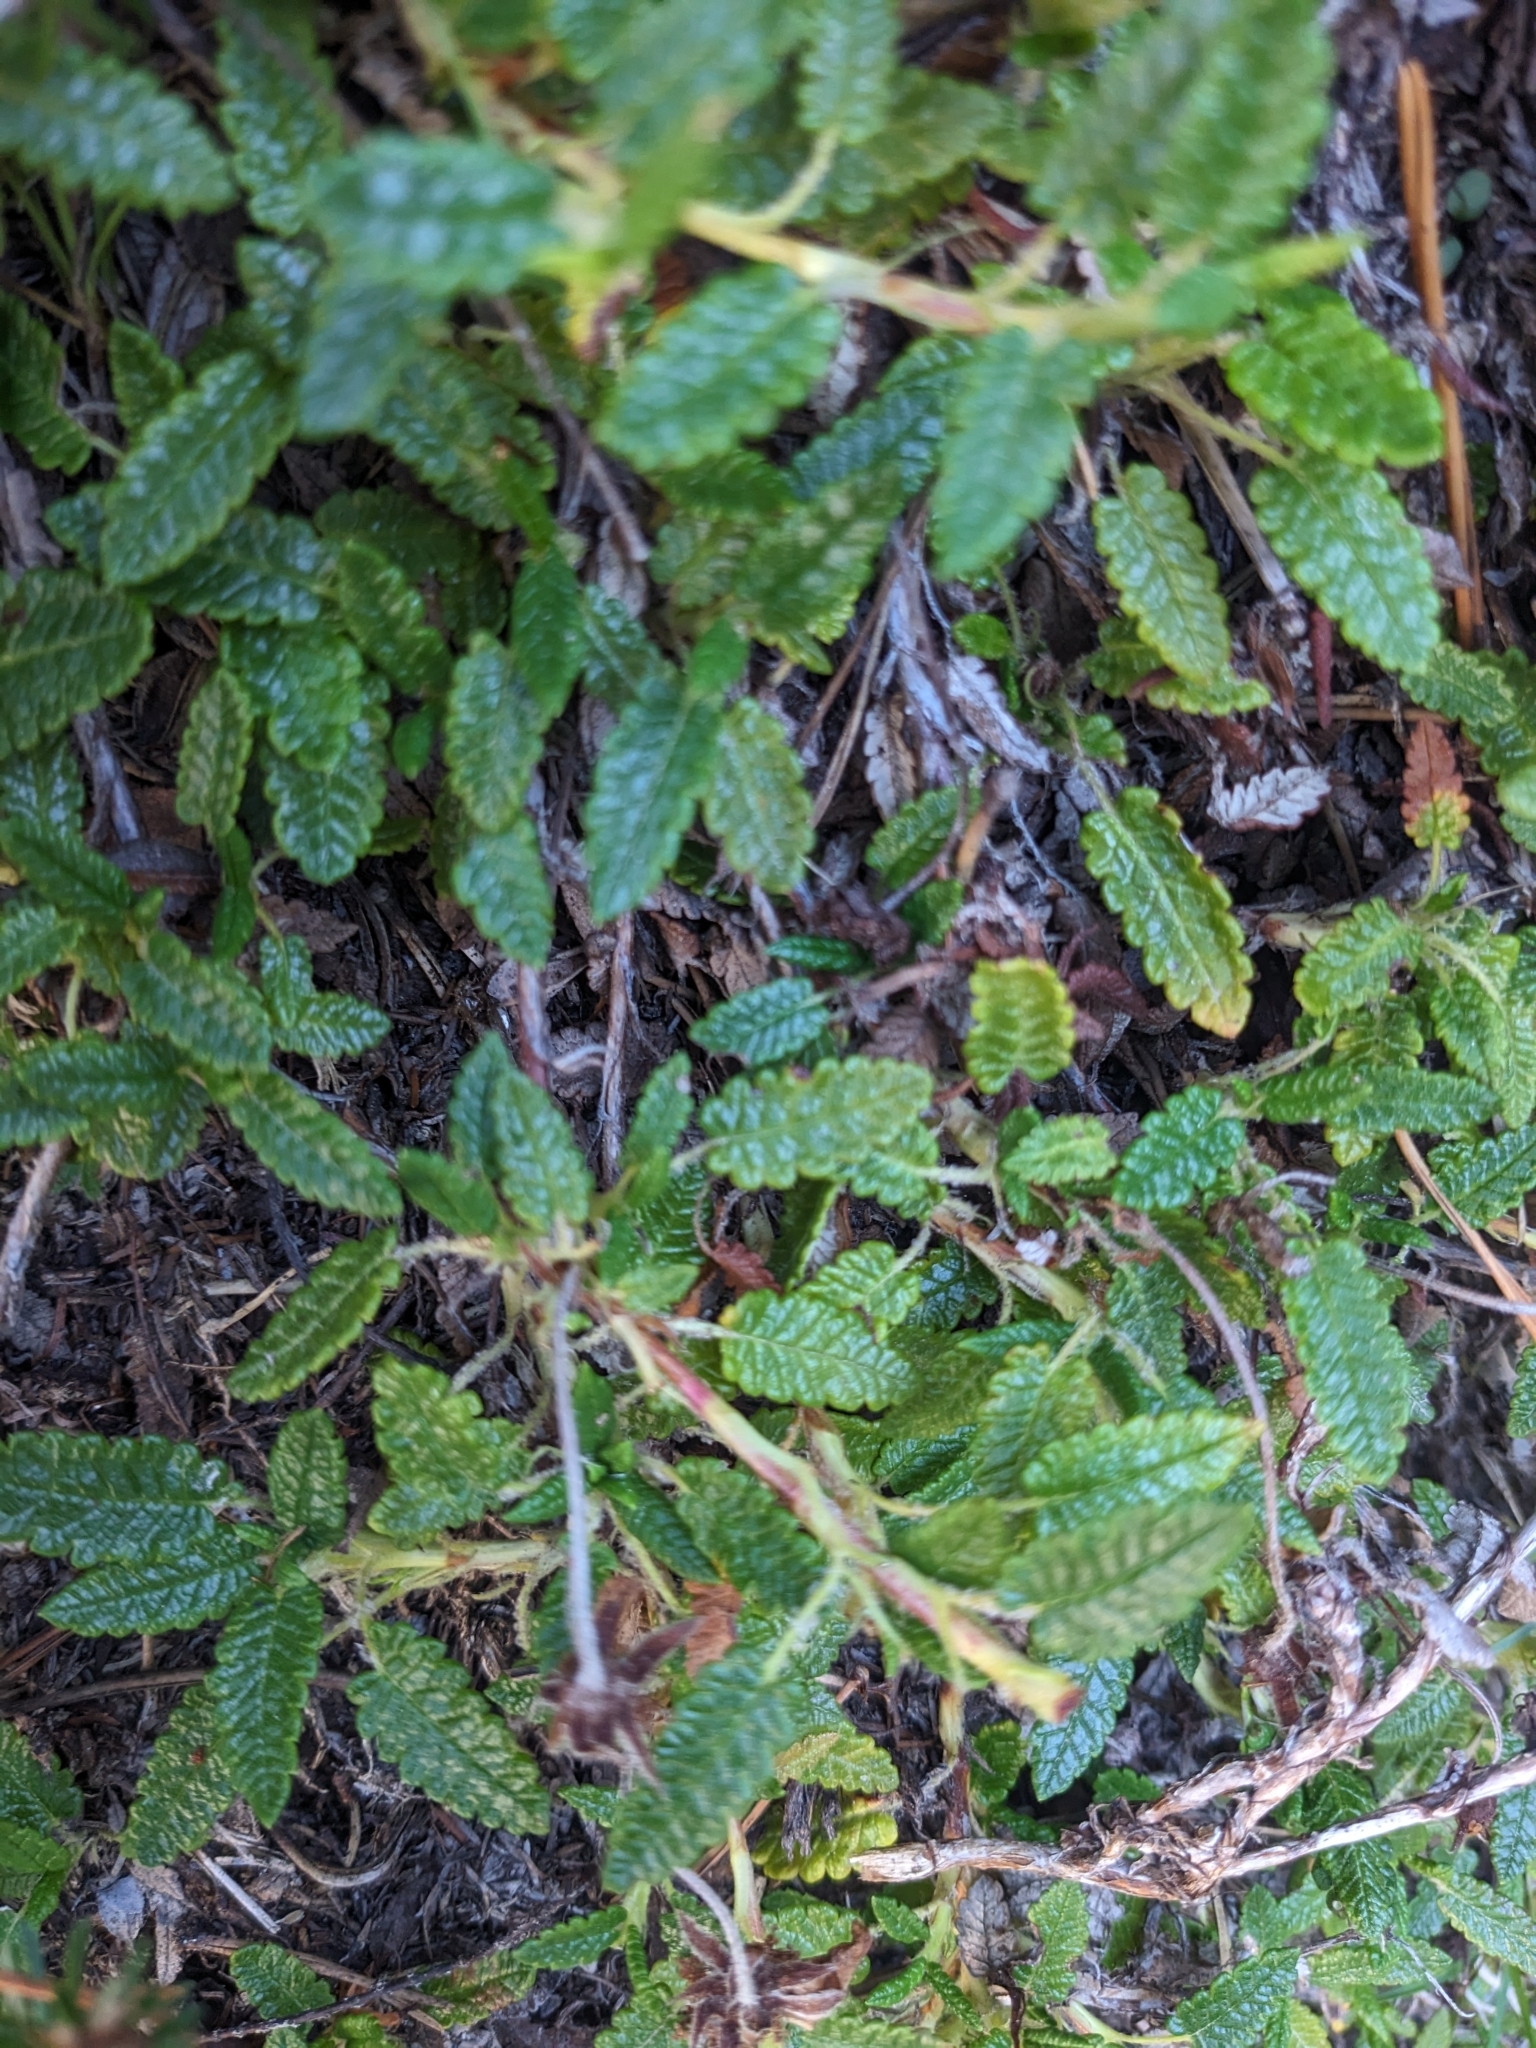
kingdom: Plantae
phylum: Tracheophyta
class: Magnoliopsida
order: Rosales
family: Rosaceae
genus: Dryas
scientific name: Dryas octopetala
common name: Eight-petal mountain-avens
